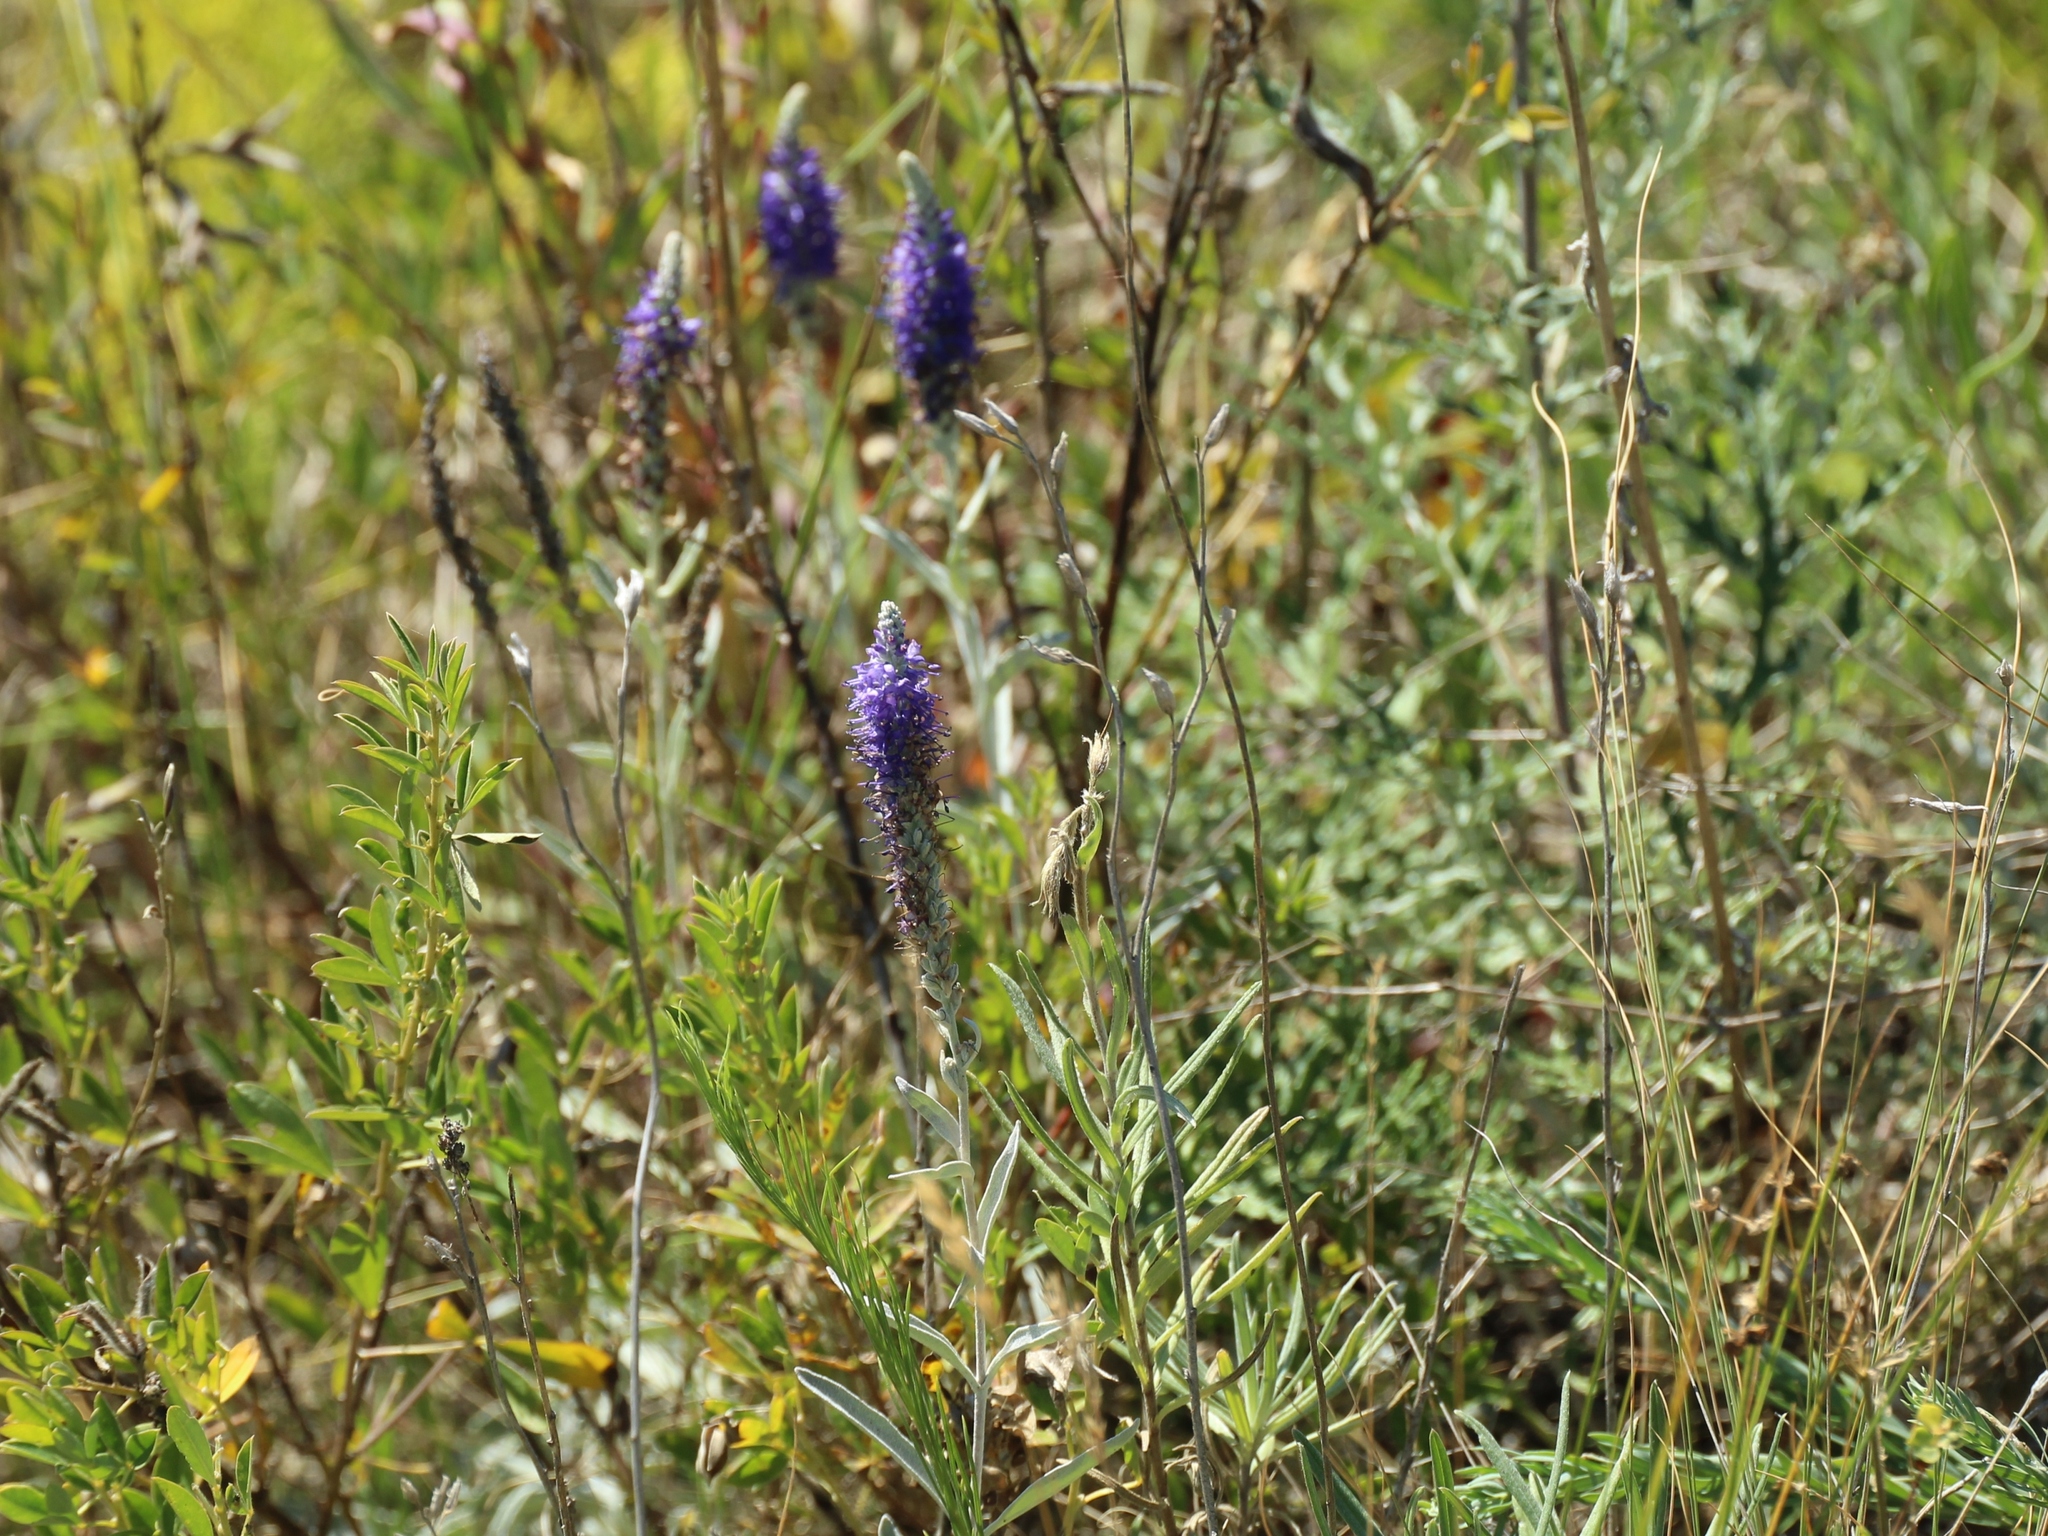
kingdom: Plantae
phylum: Tracheophyta
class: Magnoliopsida
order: Lamiales
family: Plantaginaceae
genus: Veronica
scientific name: Veronica incana
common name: Silver speedwell
